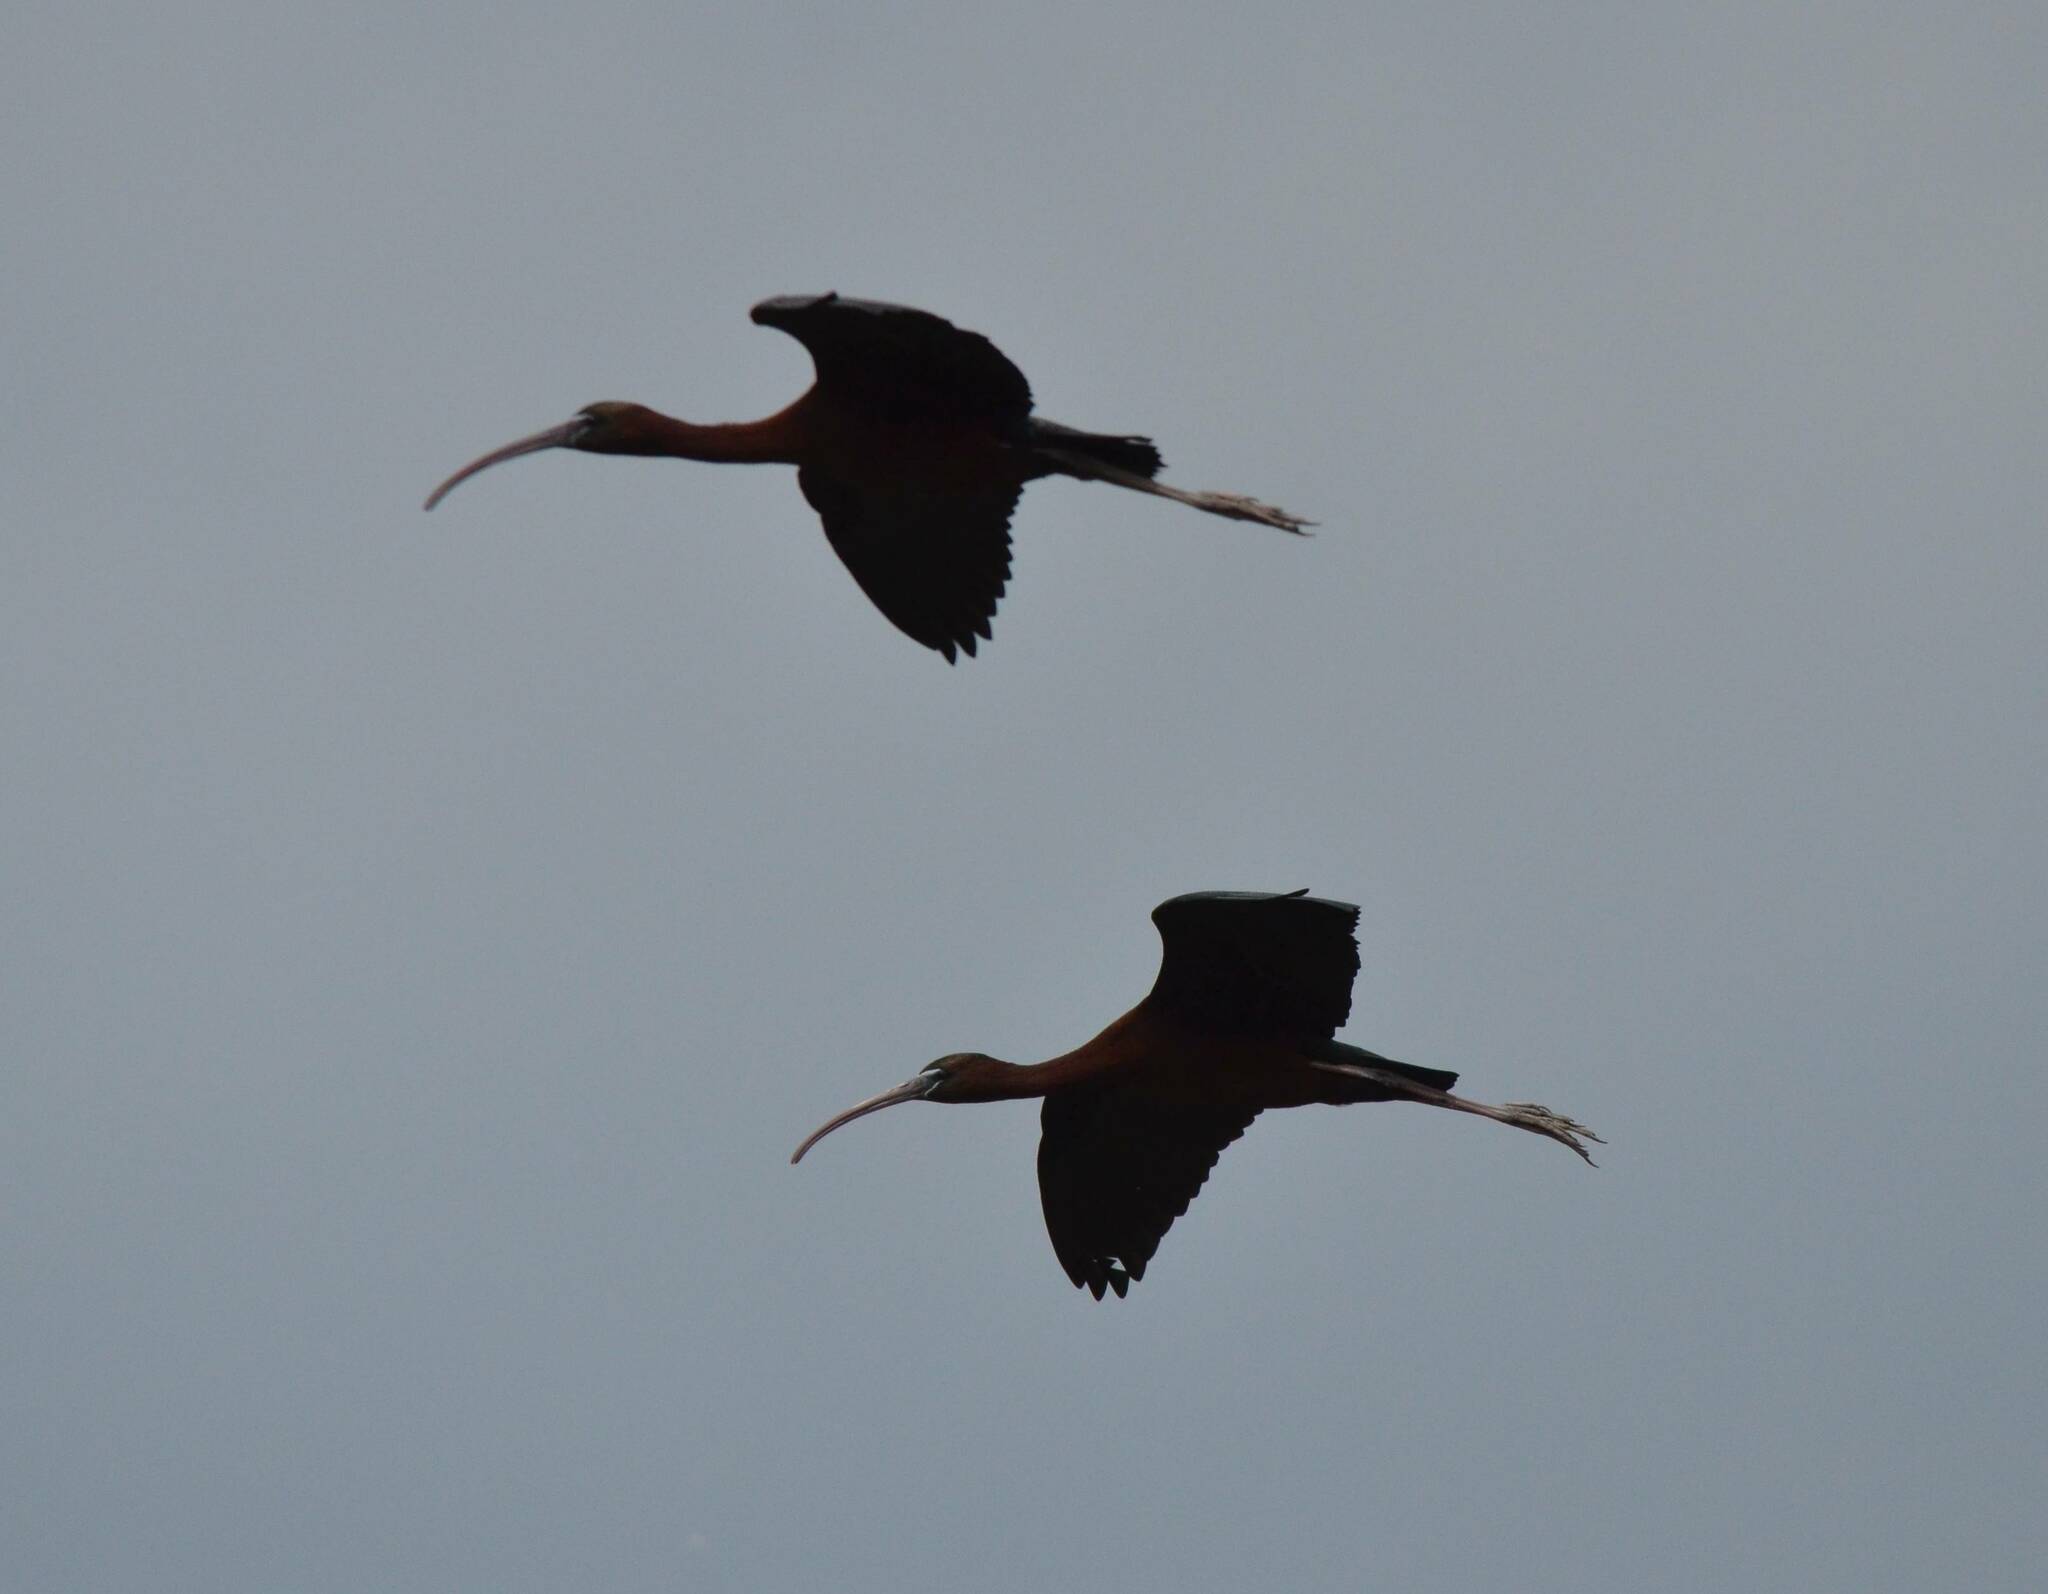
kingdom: Animalia
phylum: Chordata
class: Aves
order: Pelecaniformes
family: Threskiornithidae
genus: Plegadis
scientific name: Plegadis falcinellus
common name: Glossy ibis
